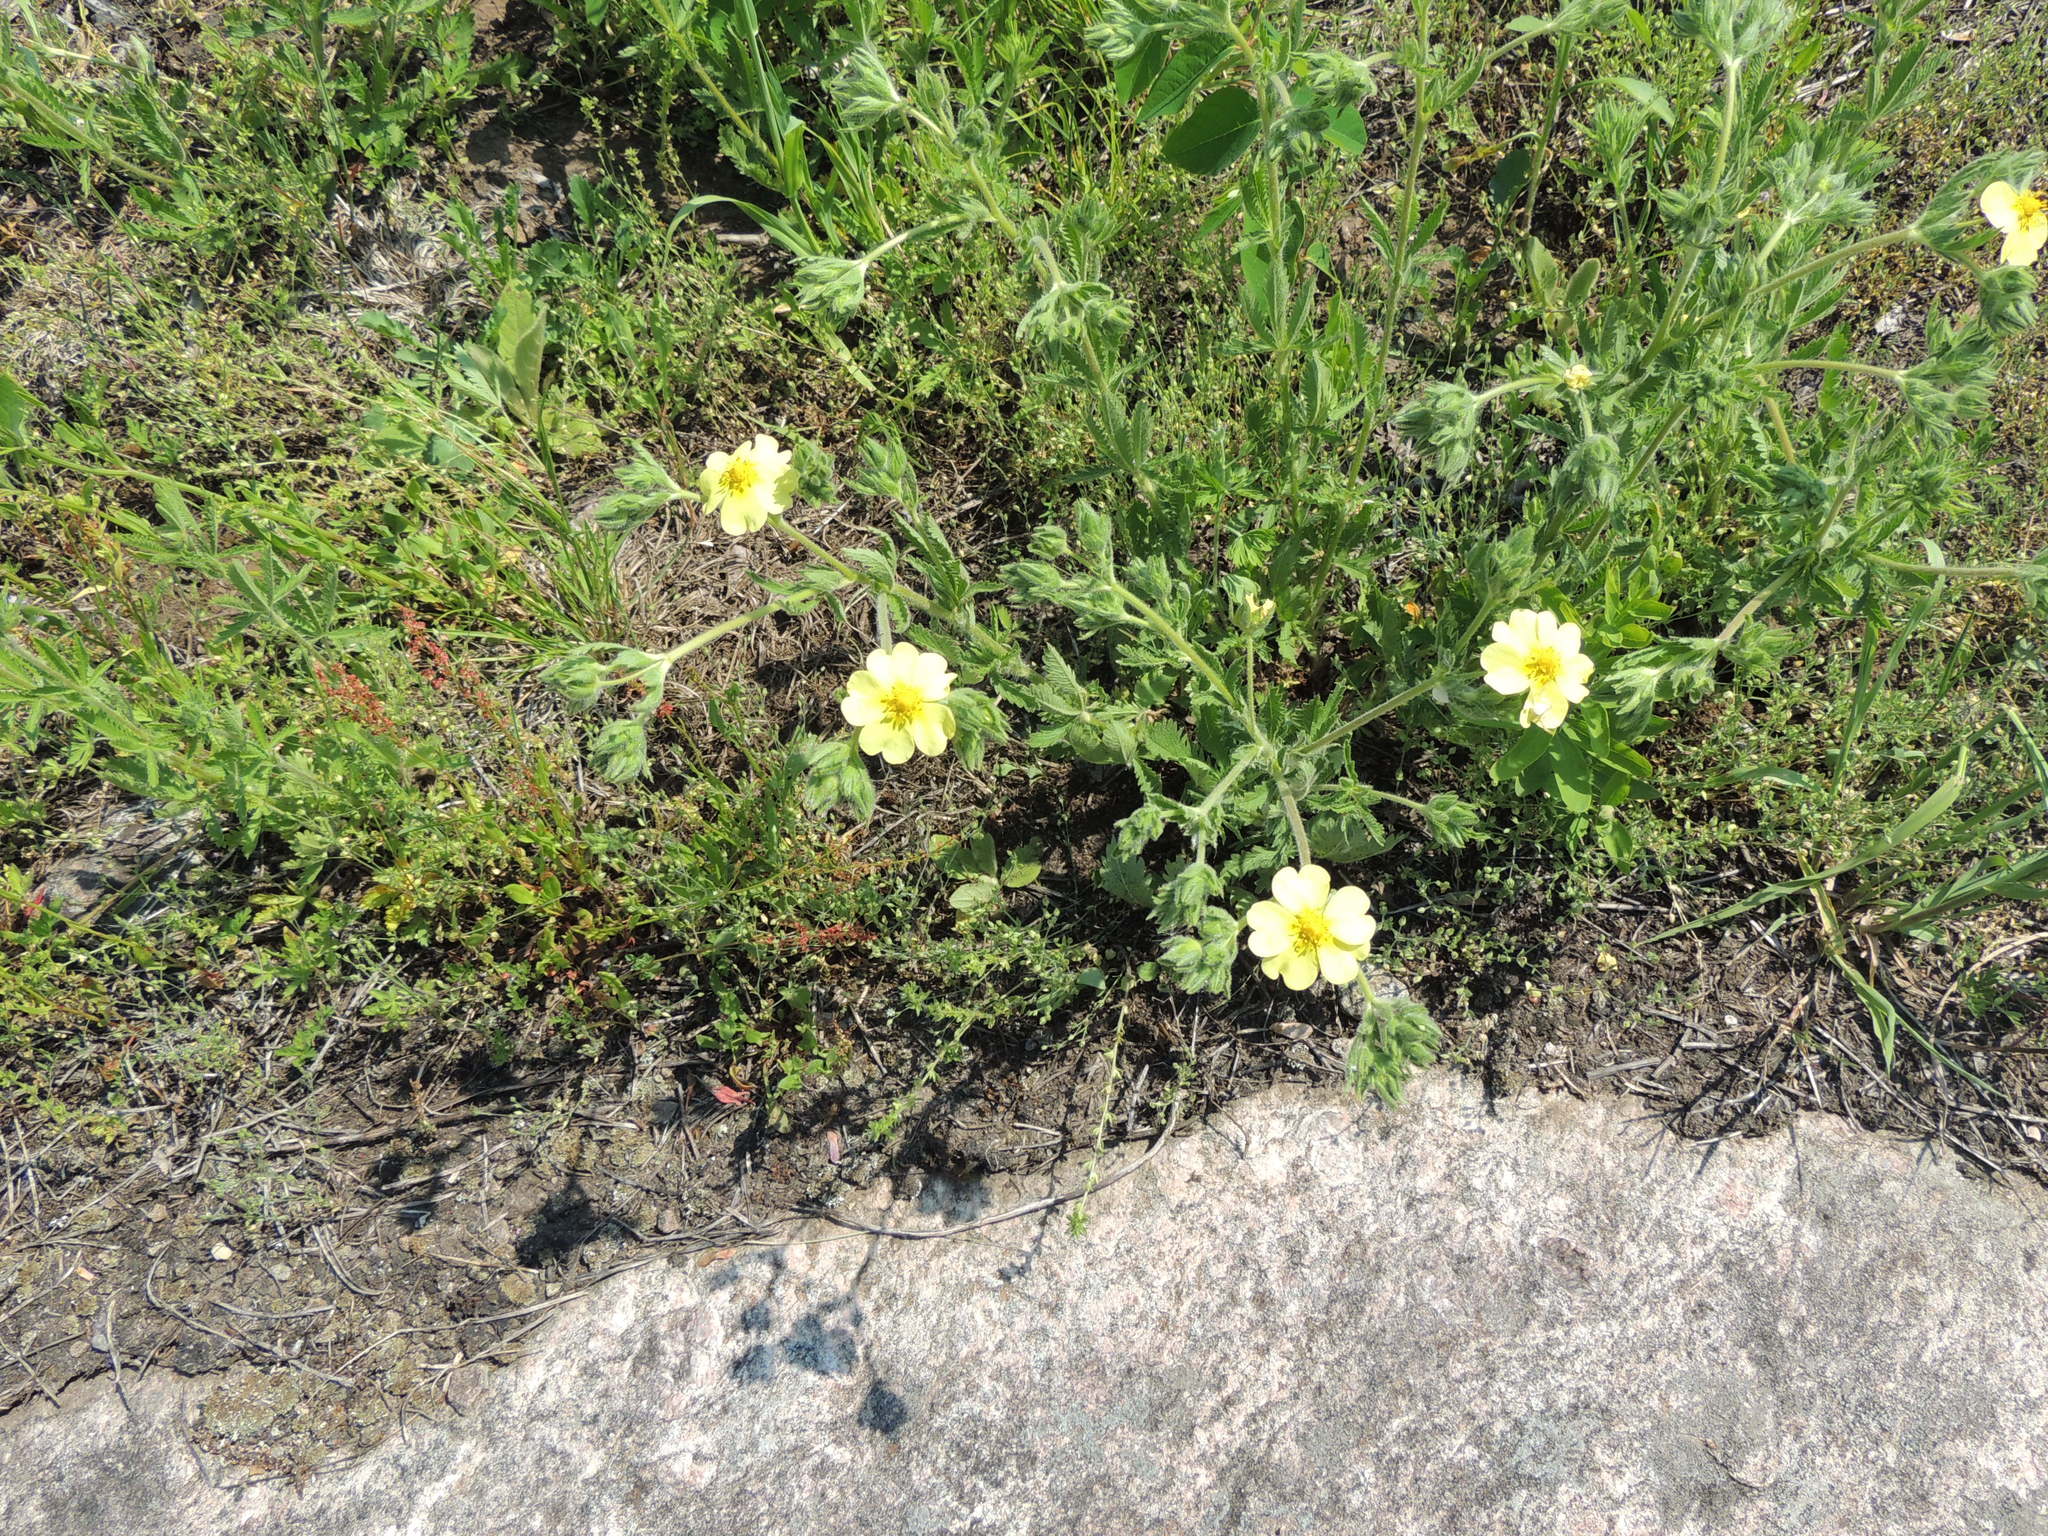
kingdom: Plantae
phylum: Tracheophyta
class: Magnoliopsida
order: Rosales
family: Rosaceae
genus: Potentilla
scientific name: Potentilla recta
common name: Sulphur cinquefoil
